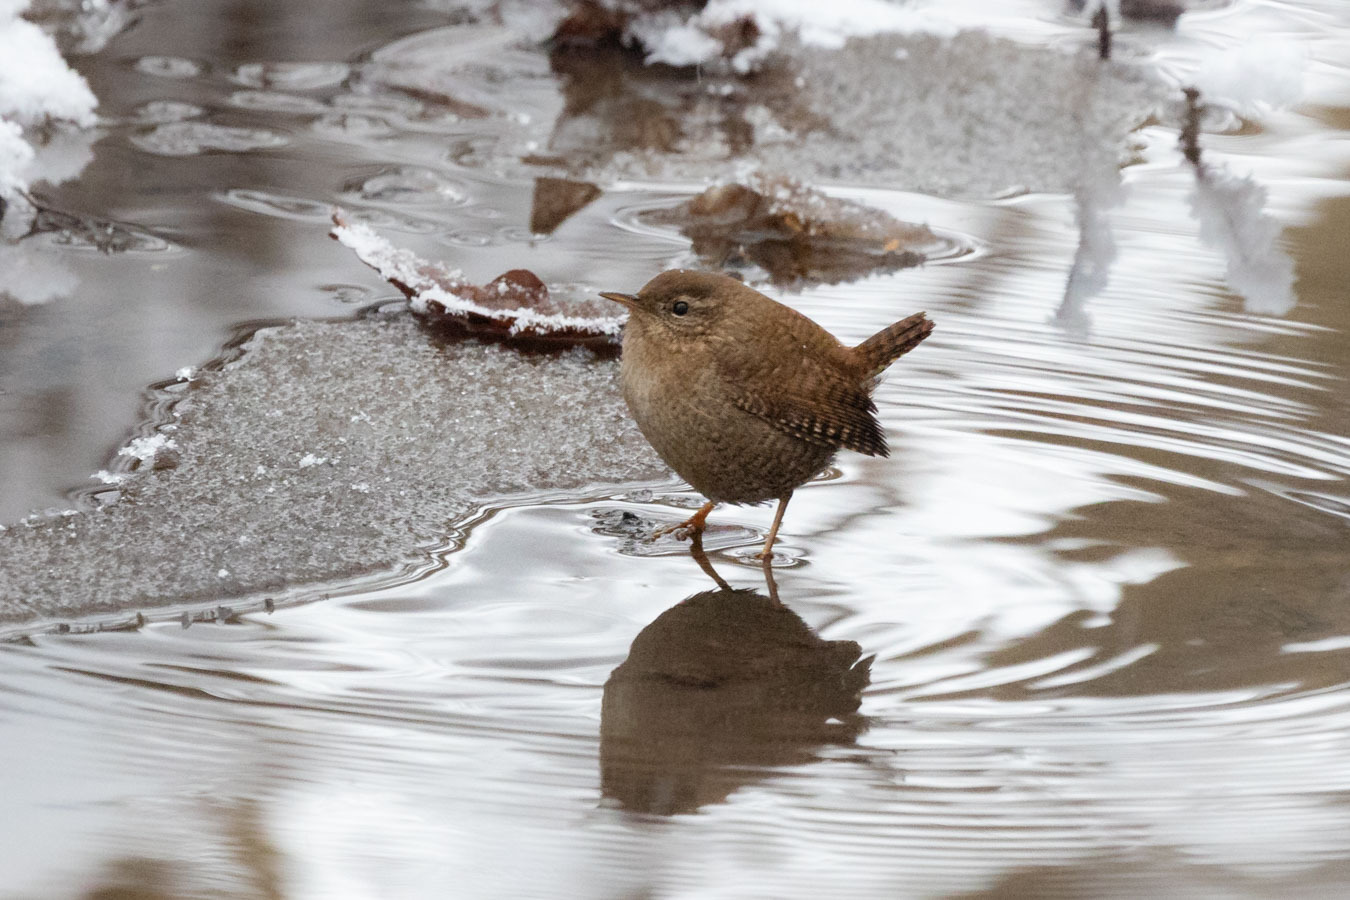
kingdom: Animalia
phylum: Chordata
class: Aves
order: Passeriformes
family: Troglodytidae
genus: Troglodytes
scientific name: Troglodytes troglodytes
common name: Eurasian wren
